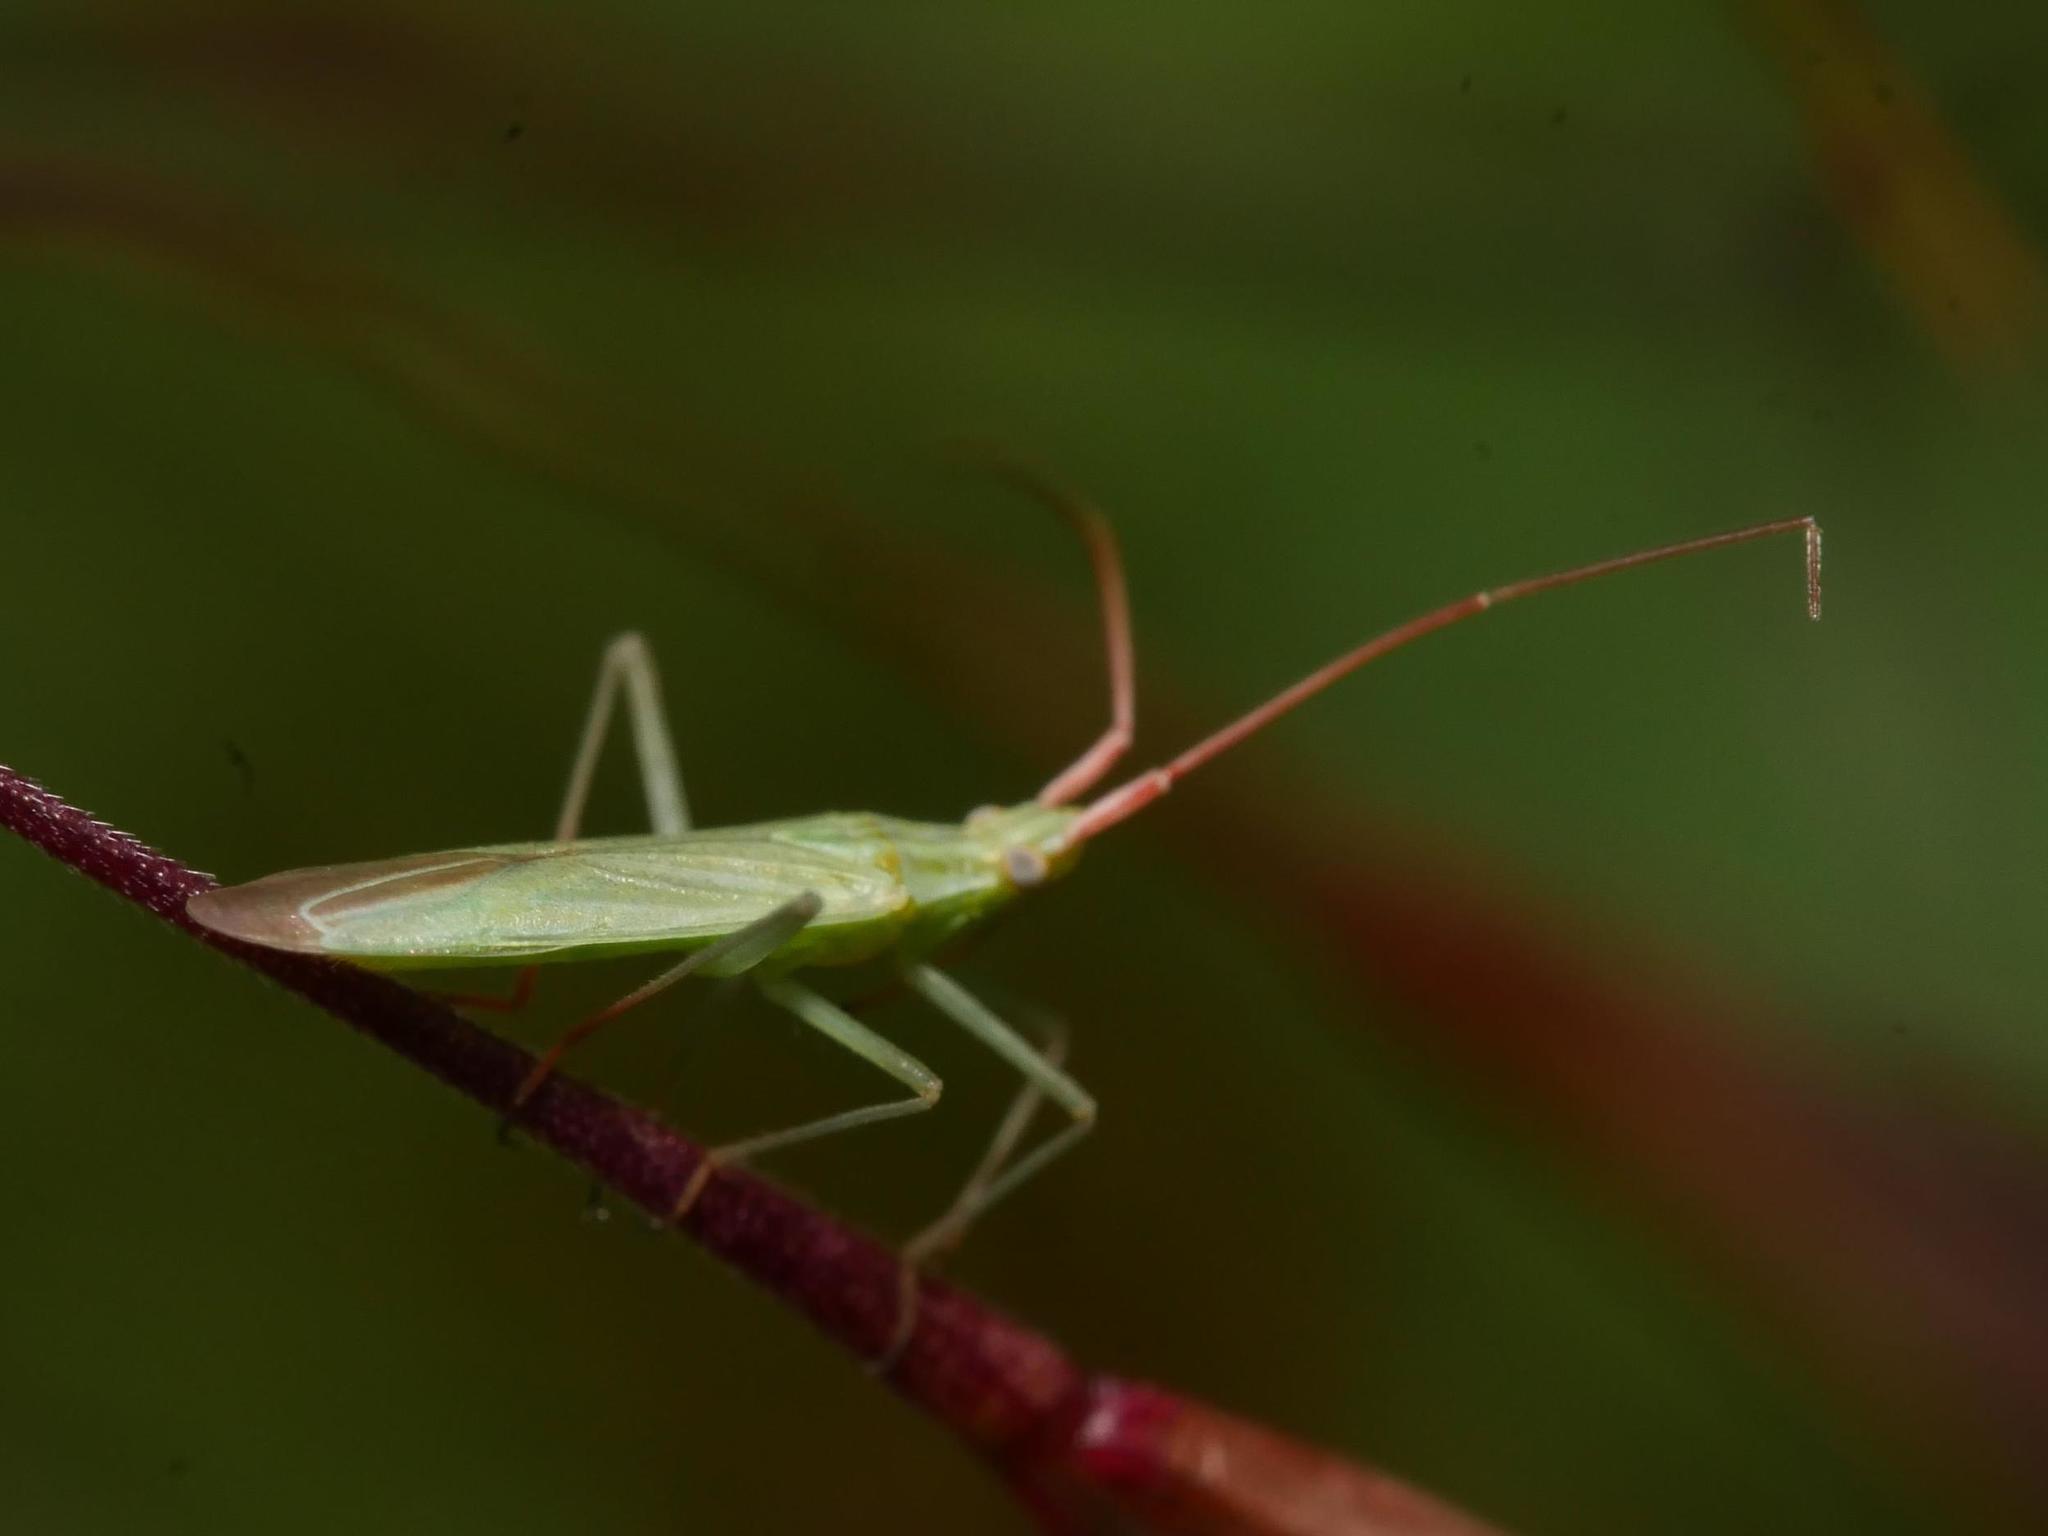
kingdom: Animalia
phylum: Arthropoda
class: Insecta
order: Hemiptera
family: Miridae
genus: Trigonotylus
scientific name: Trigonotylus caelestialium
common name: Rice leaf bug
